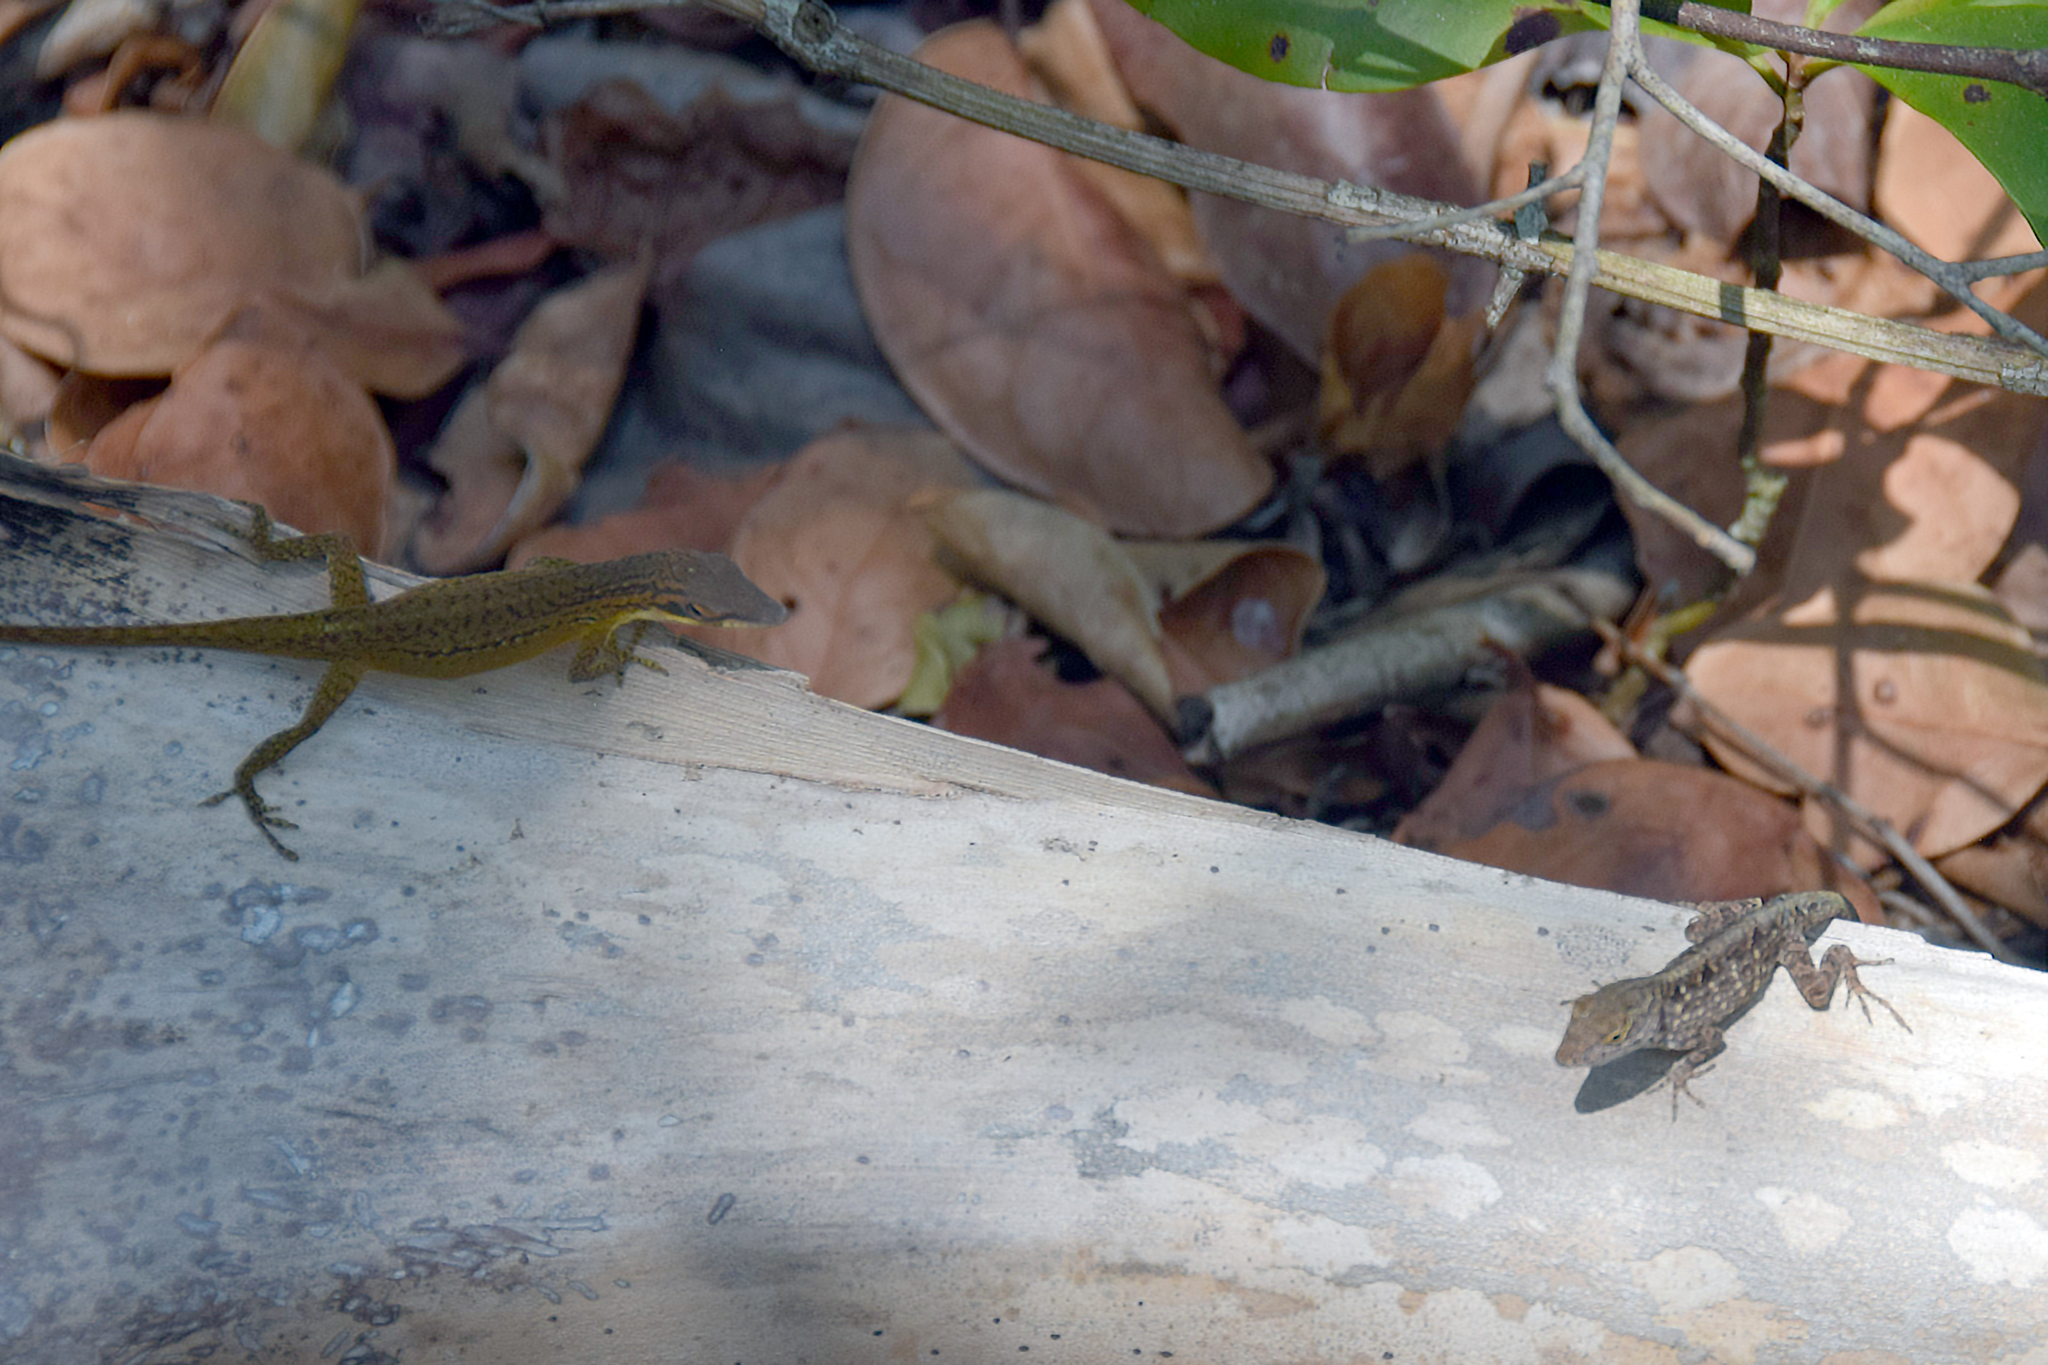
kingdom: Animalia
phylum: Chordata
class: Squamata
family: Dactyloidae
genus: Anolis
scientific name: Anolis sagrei
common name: Brown anole
